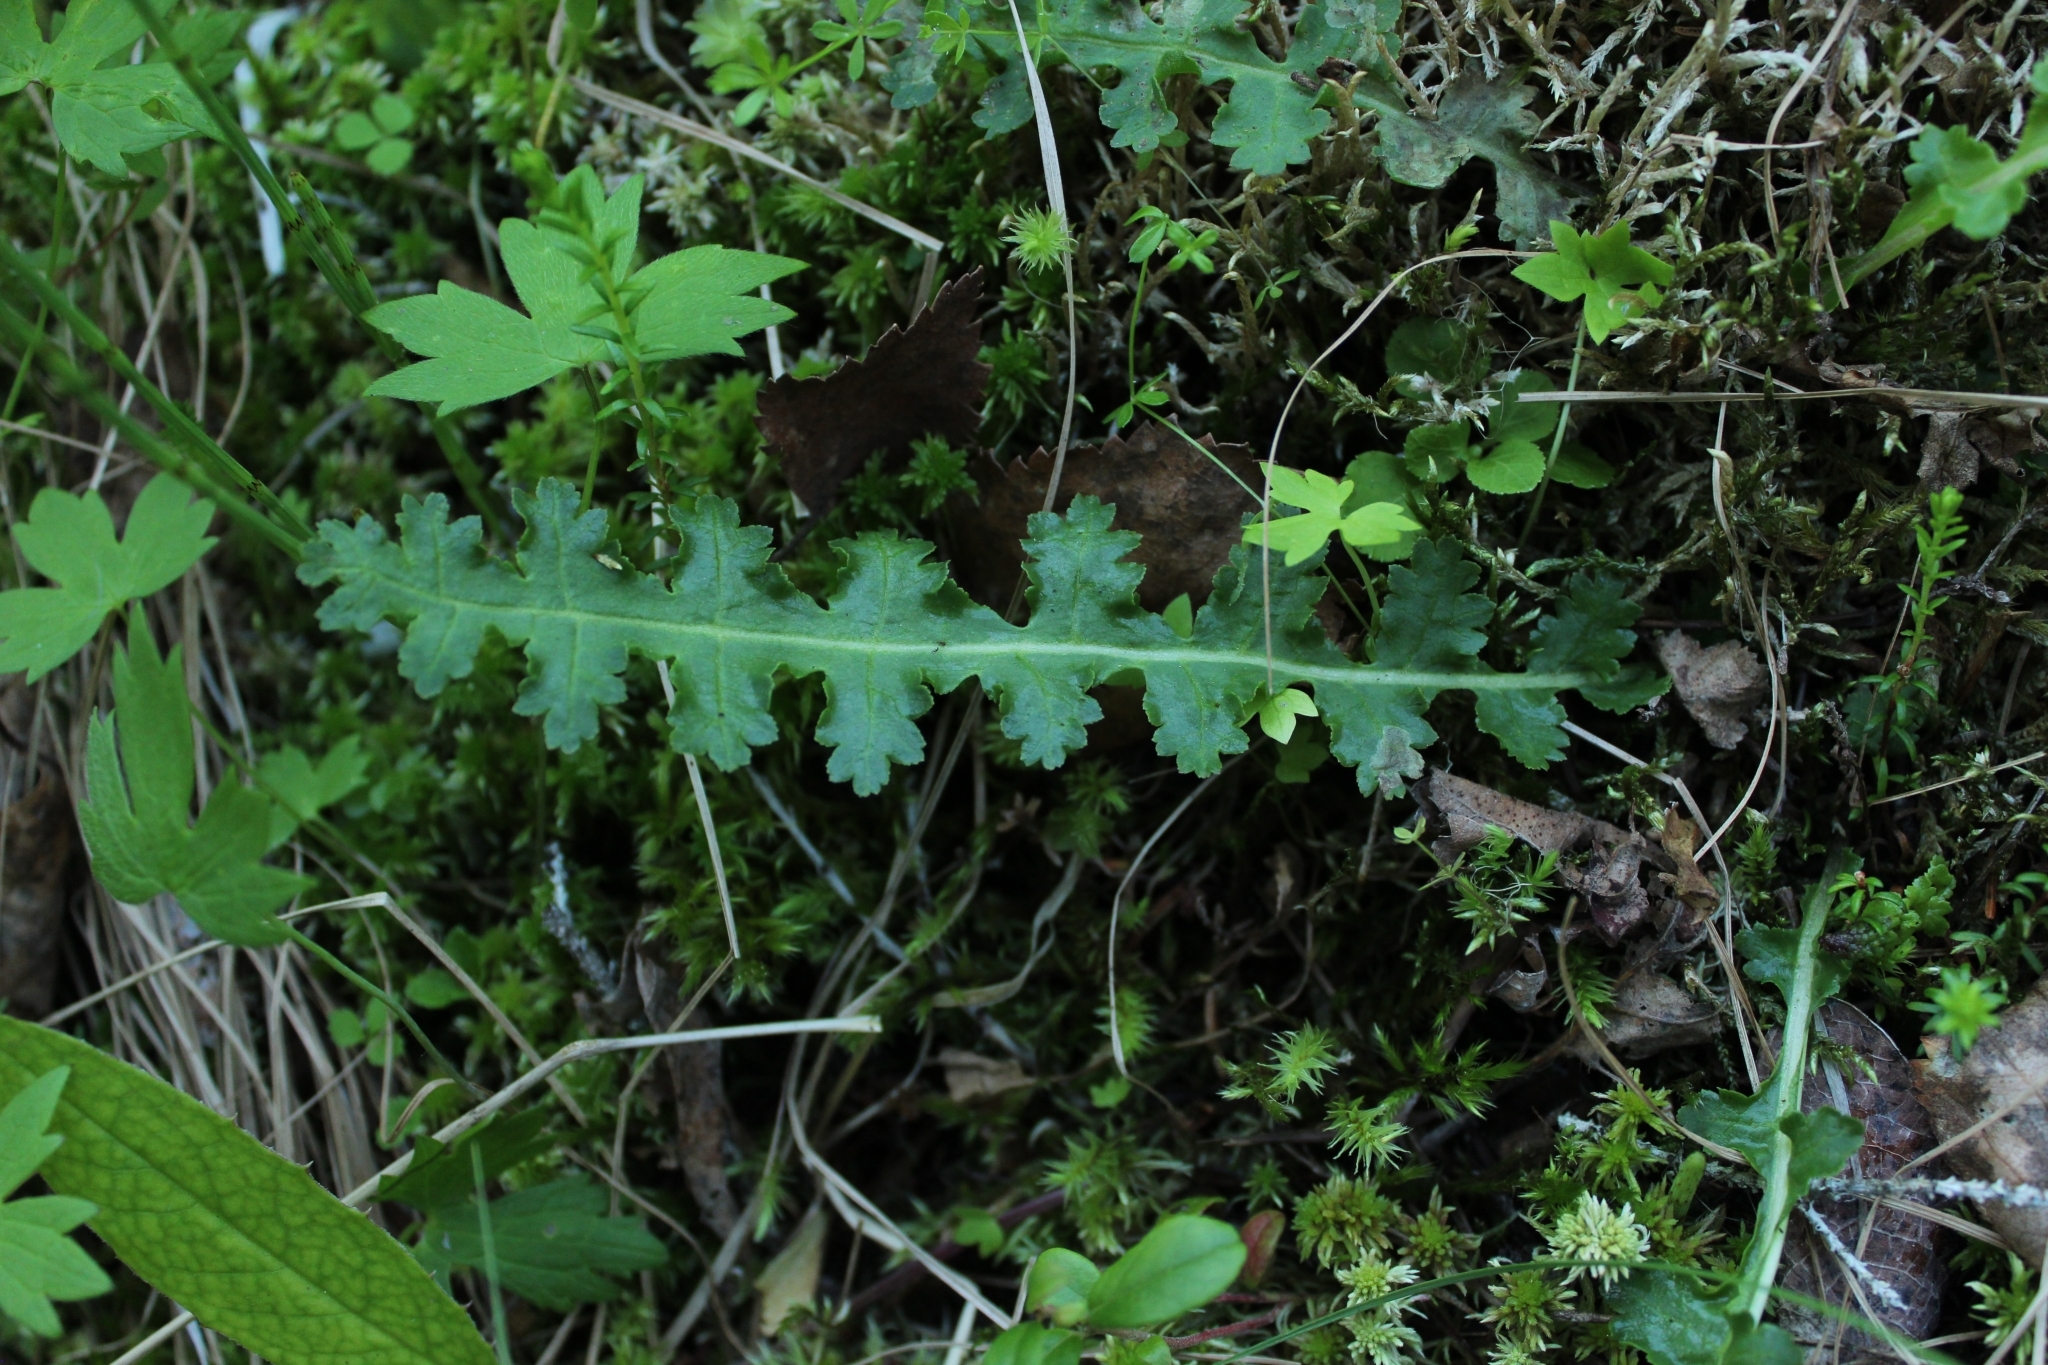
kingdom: Plantae
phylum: Tracheophyta
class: Magnoliopsida
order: Lamiales
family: Orobanchaceae
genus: Pedicularis
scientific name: Pedicularis sceptrum-carolinum
